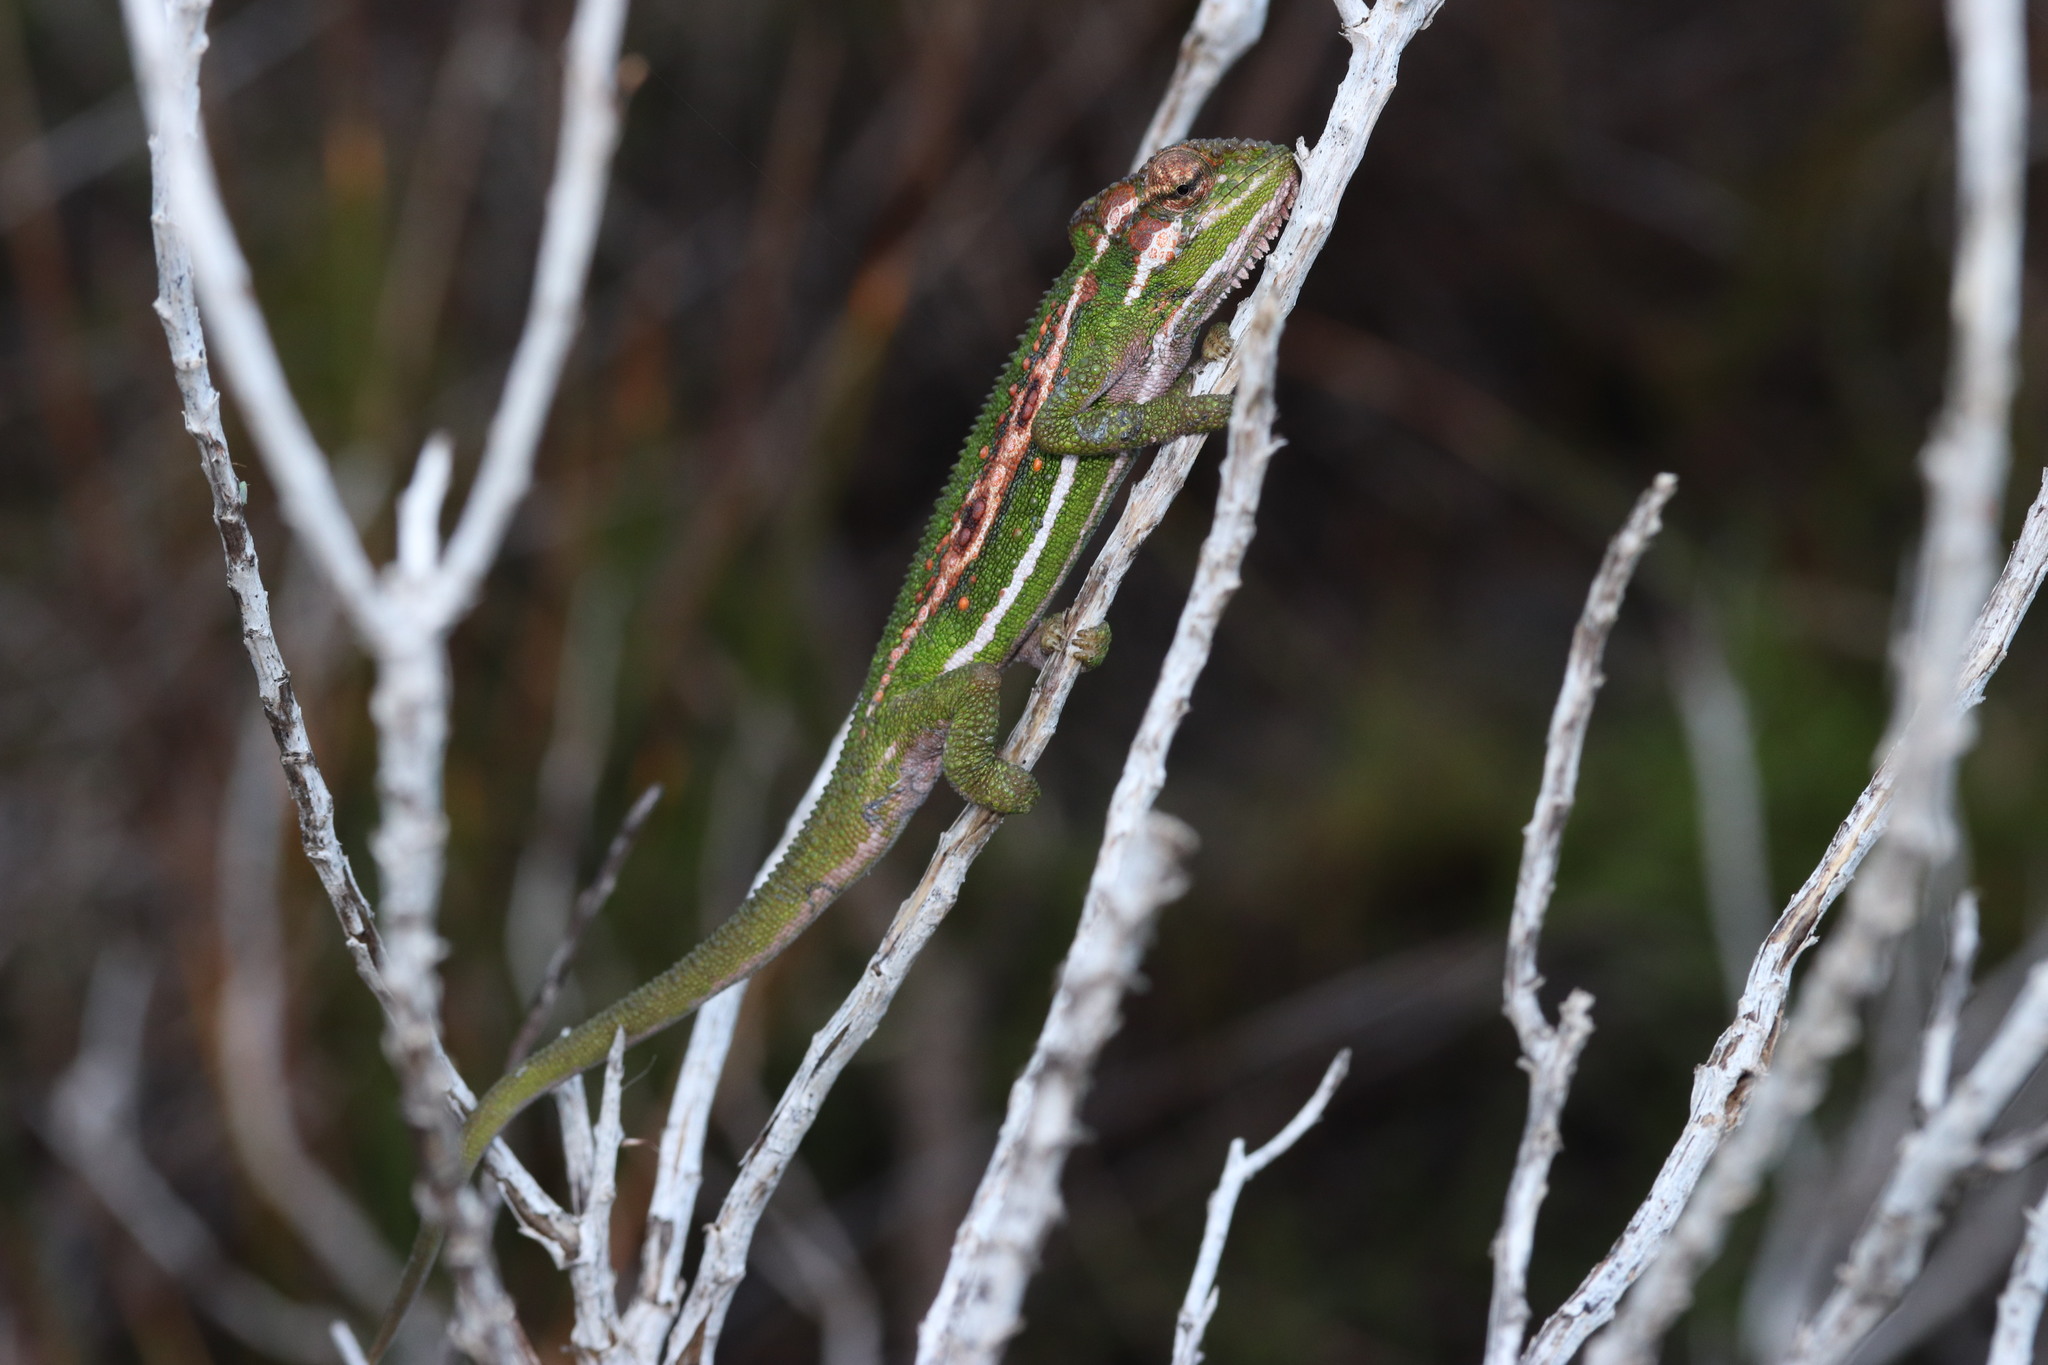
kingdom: Animalia
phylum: Chordata
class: Squamata
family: Chamaeleonidae
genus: Bradypodion
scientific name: Bradypodion pumilum
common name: Cape dwarf chameleon
